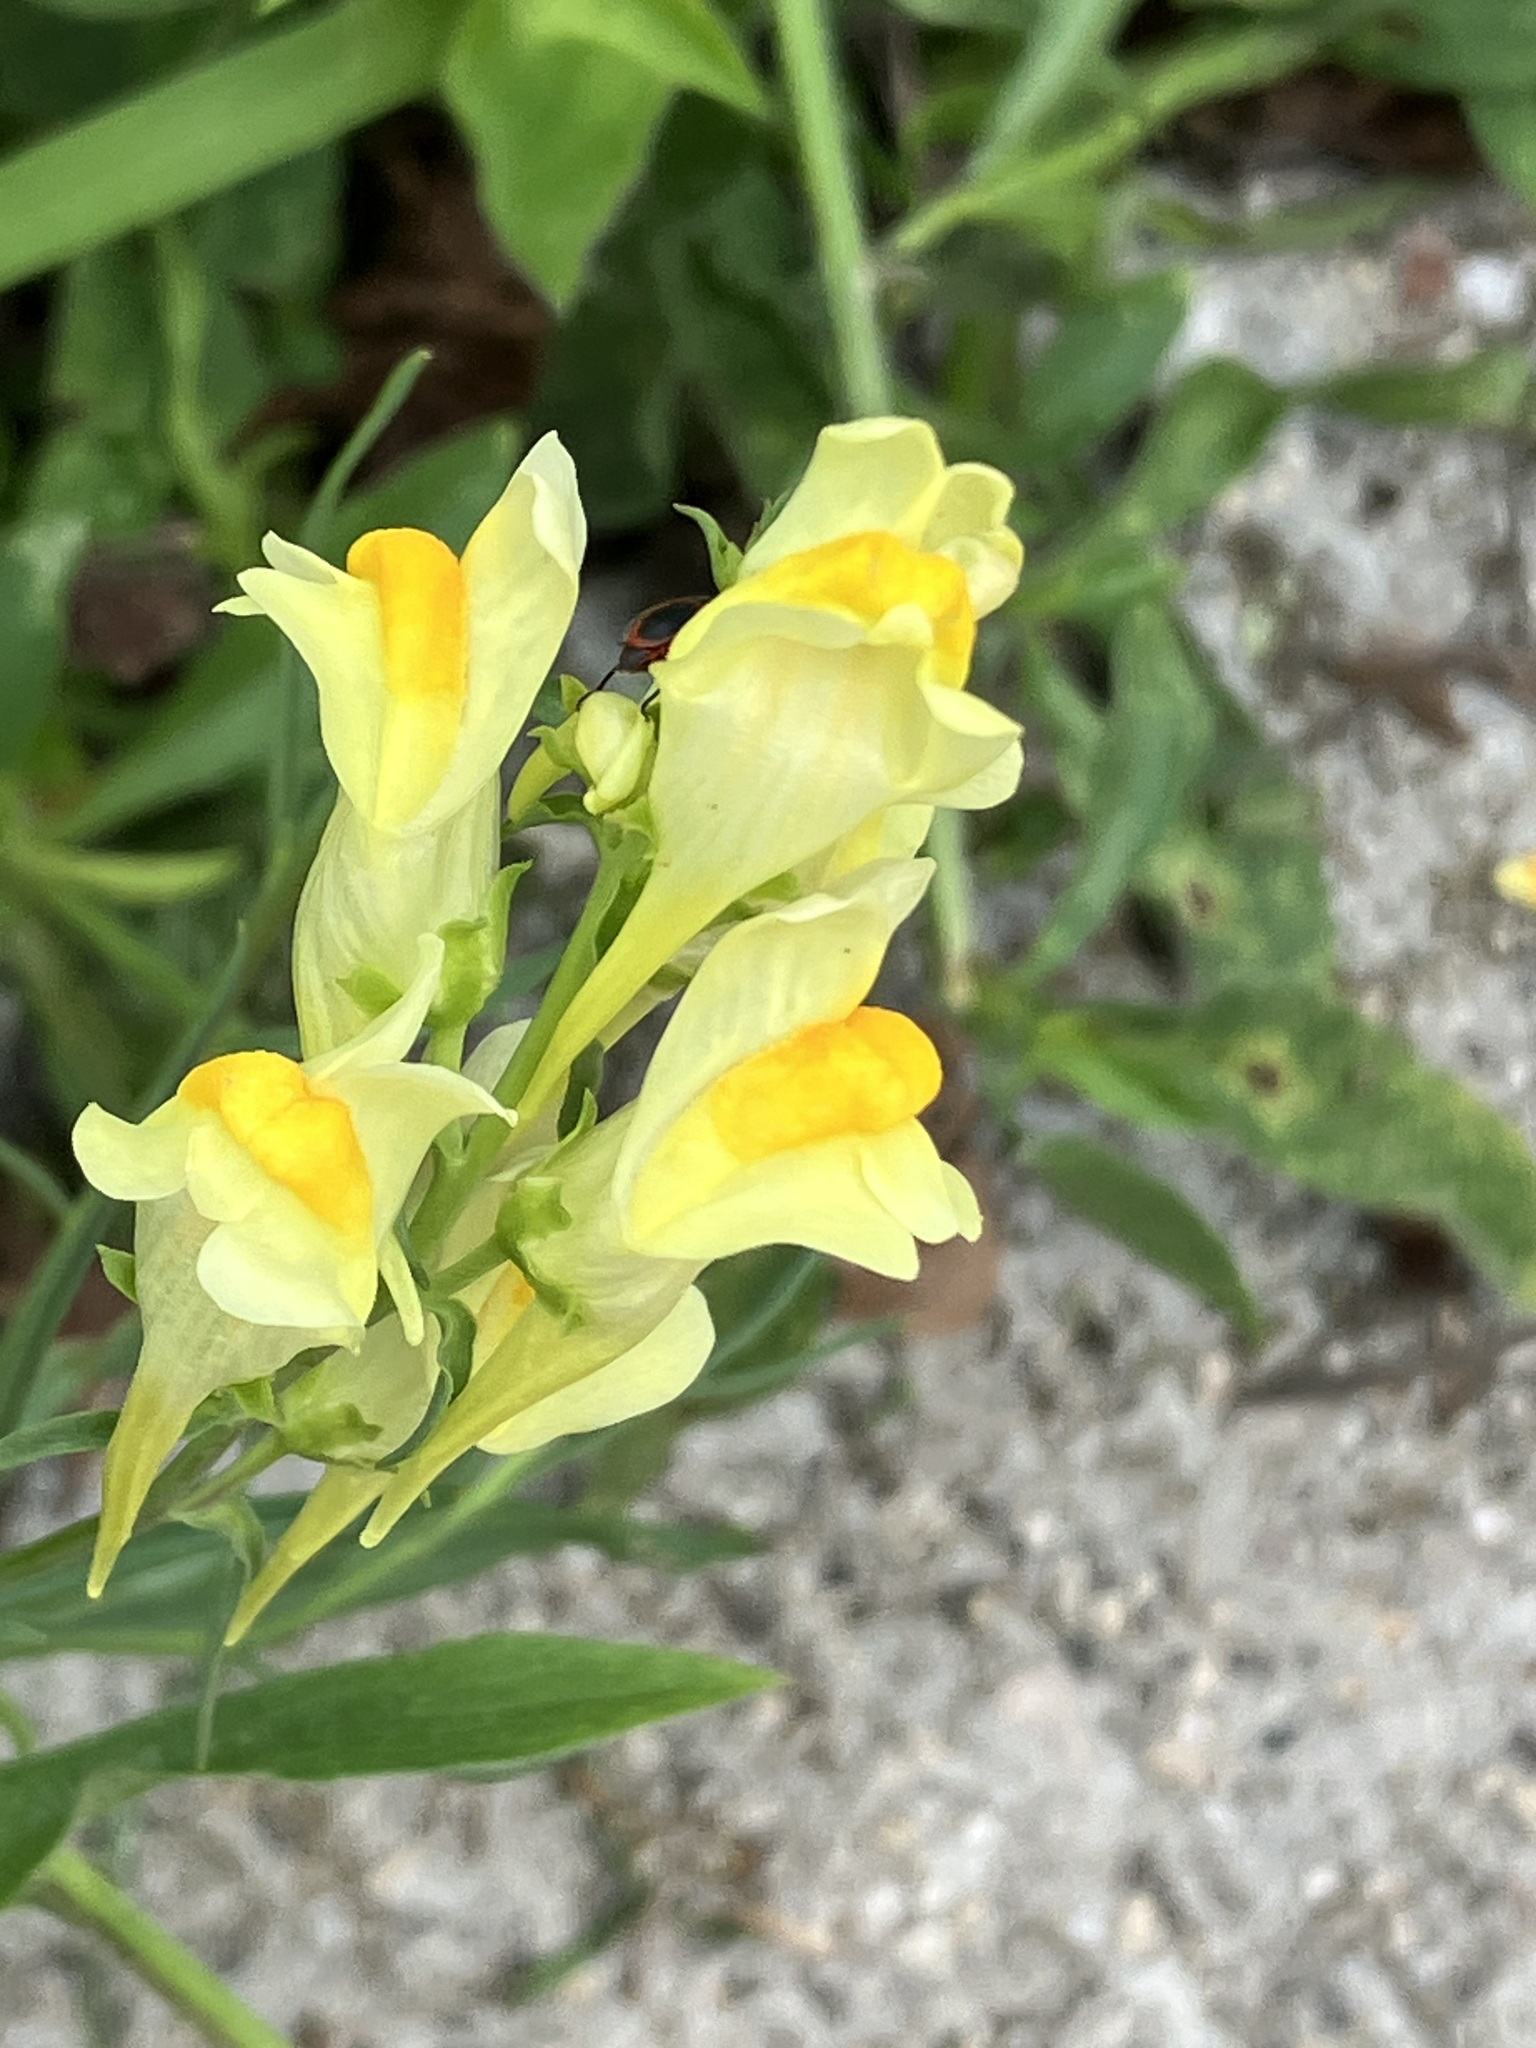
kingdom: Plantae
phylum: Tracheophyta
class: Magnoliopsida
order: Lamiales
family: Plantaginaceae
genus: Linaria
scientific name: Linaria vulgaris
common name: Butter and eggs
